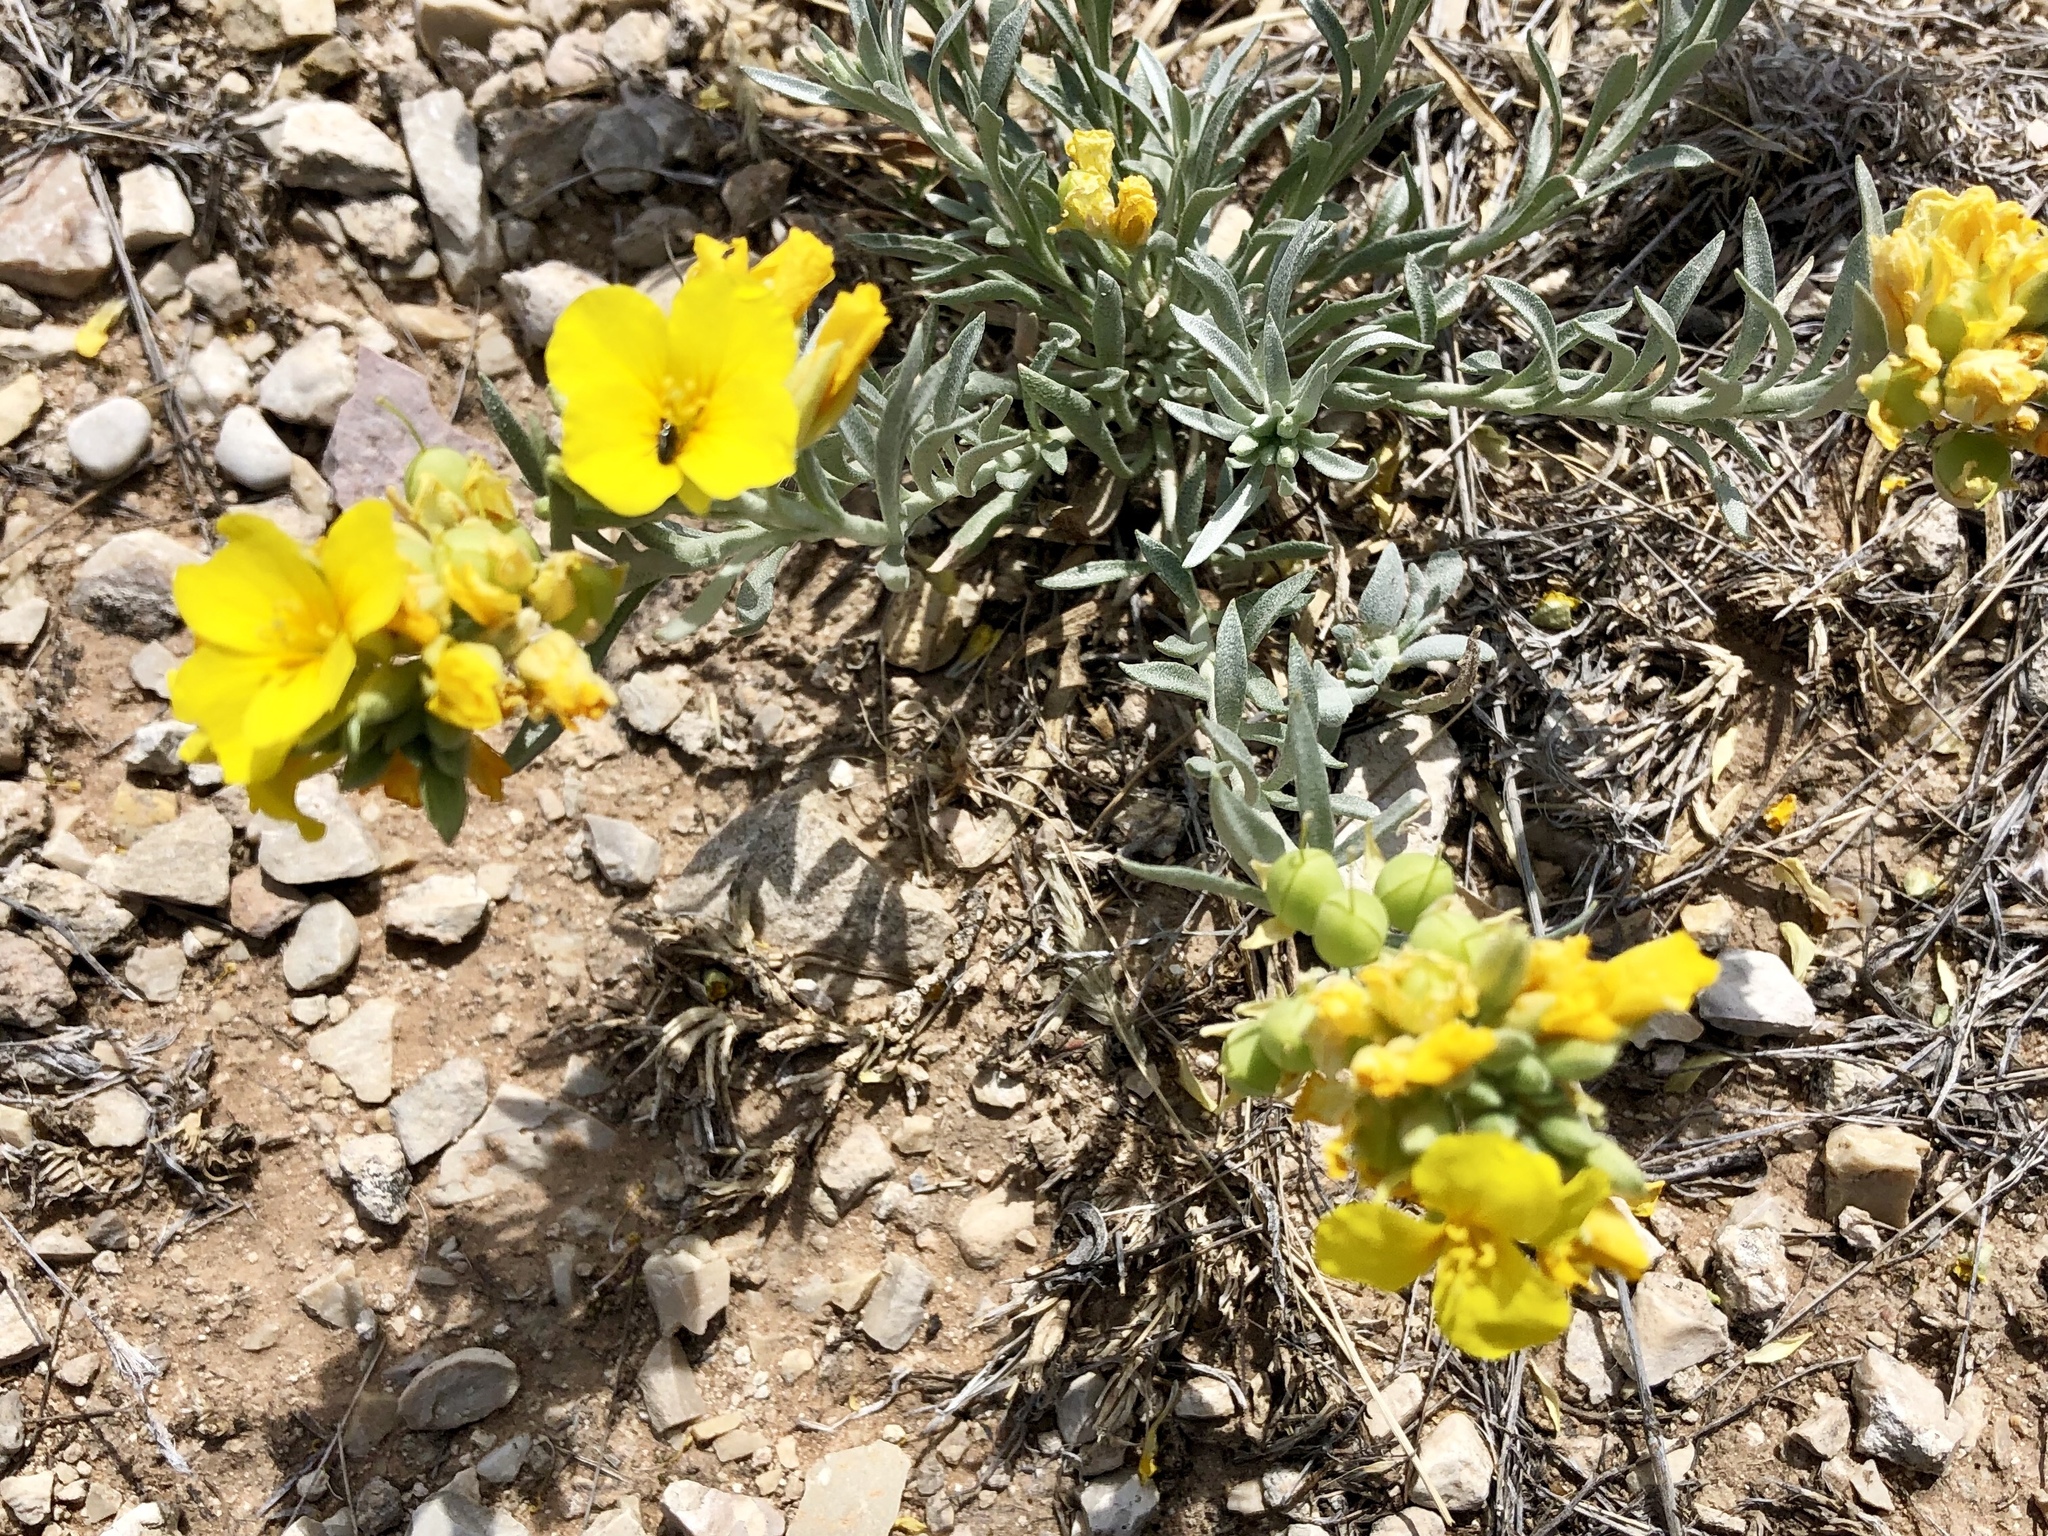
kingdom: Plantae
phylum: Tracheophyta
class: Magnoliopsida
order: Brassicales
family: Brassicaceae
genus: Physaria
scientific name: Physaria fendleri
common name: Fendler's bladderpod
